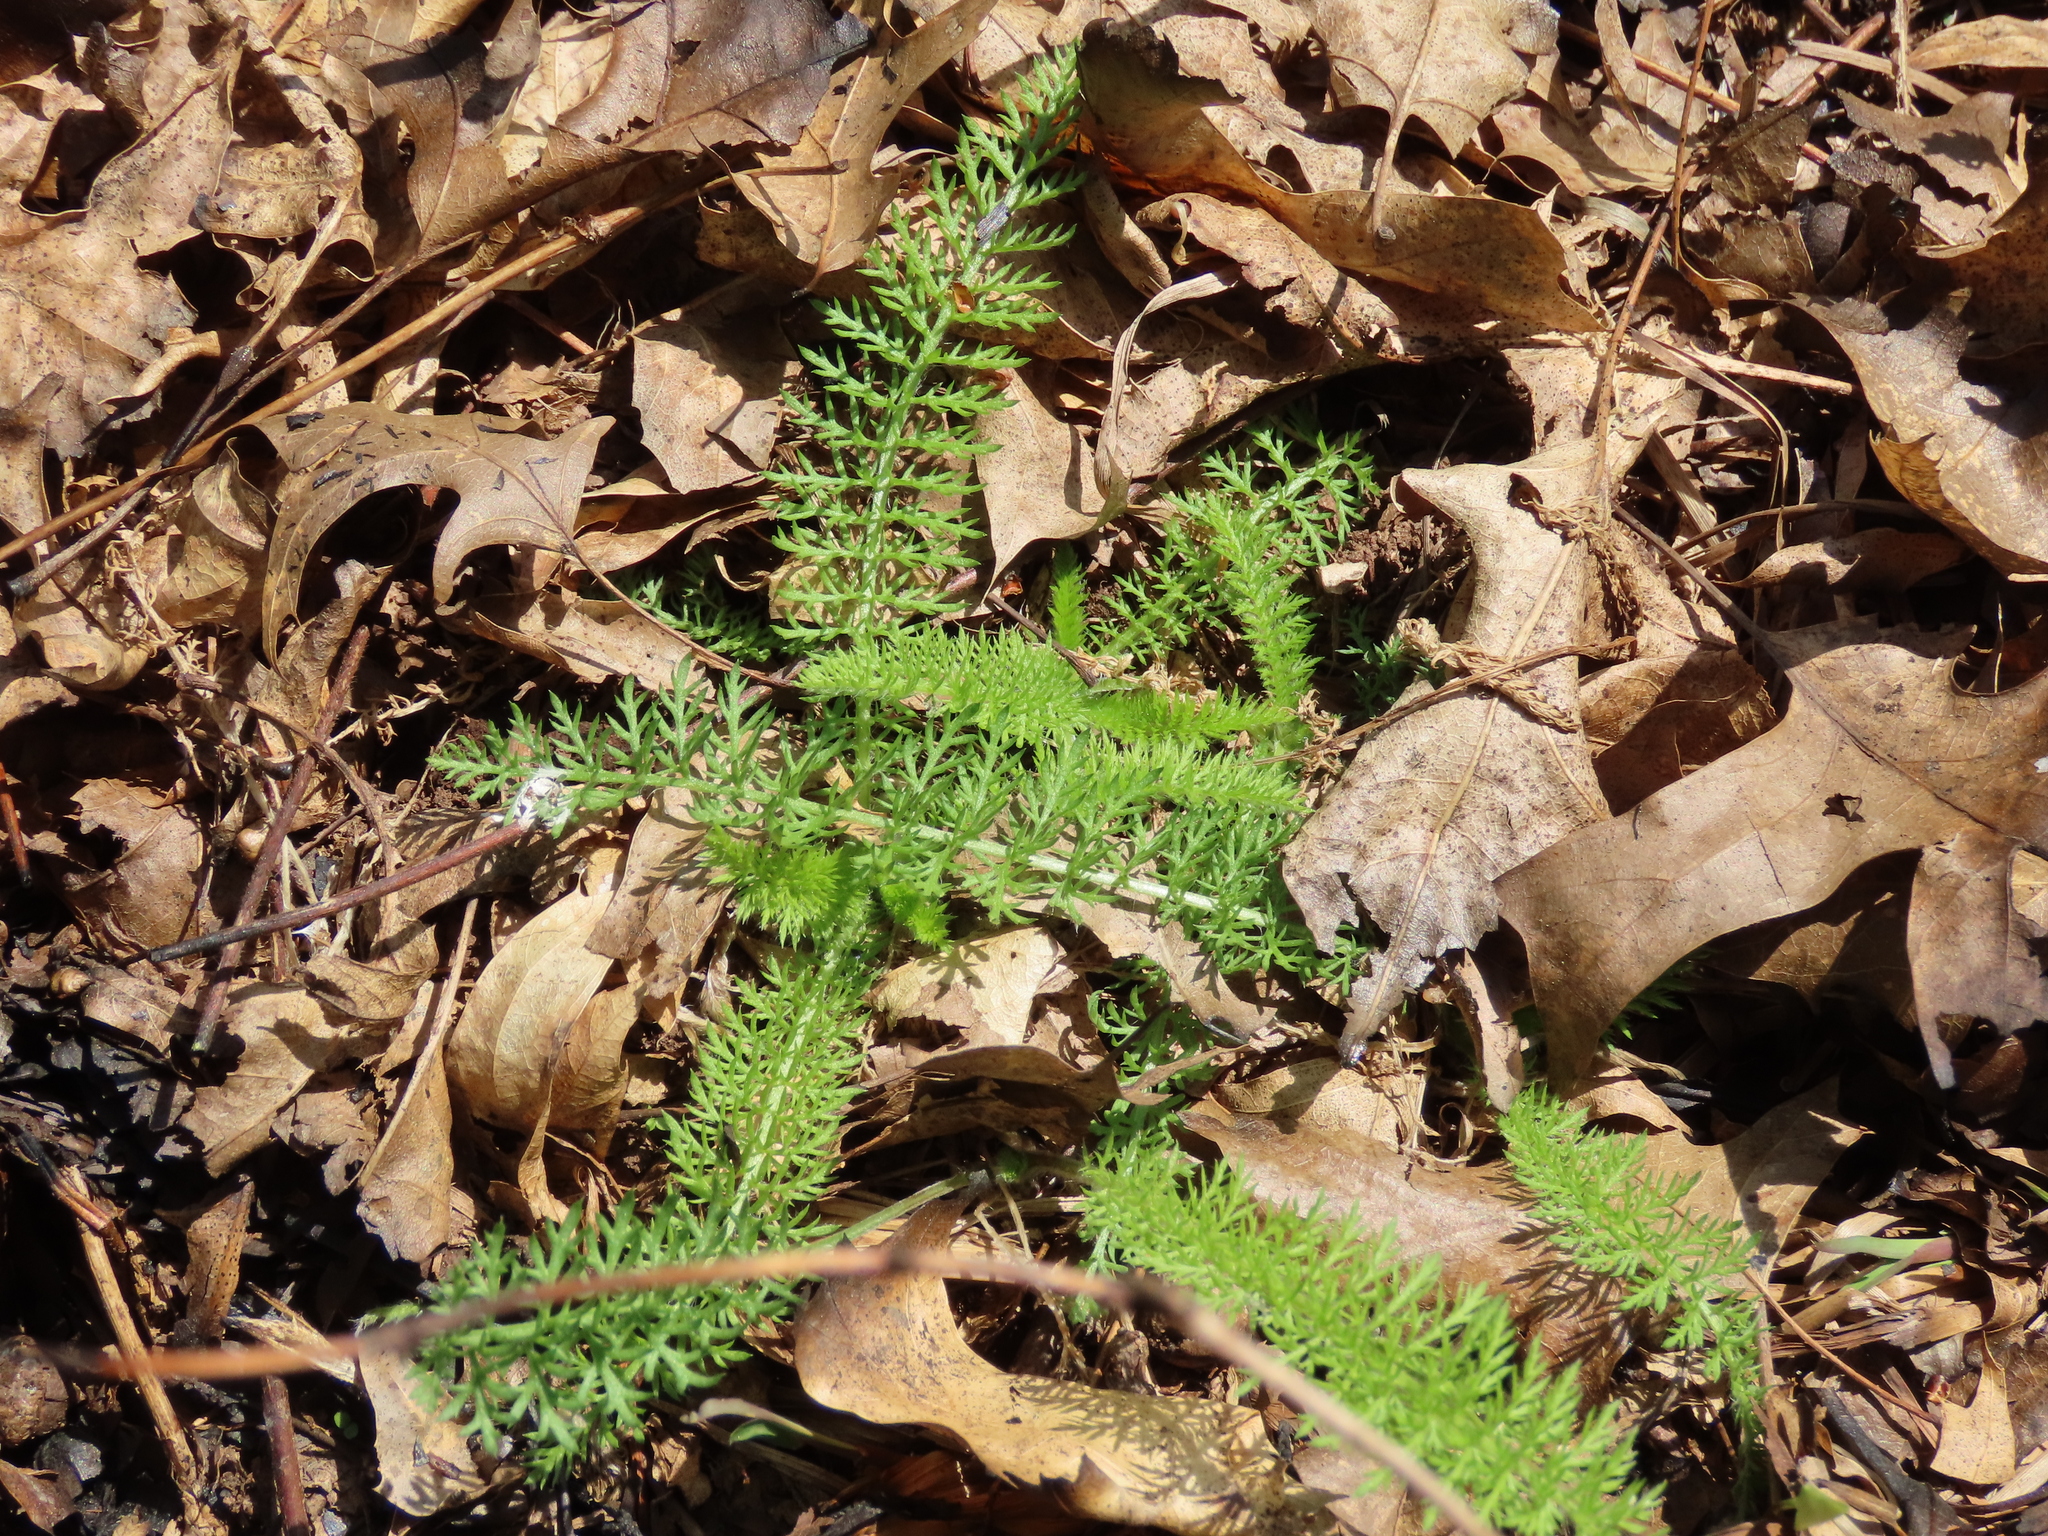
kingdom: Plantae
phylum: Tracheophyta
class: Magnoliopsida
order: Asterales
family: Asteraceae
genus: Achillea
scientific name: Achillea millefolium
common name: Yarrow
